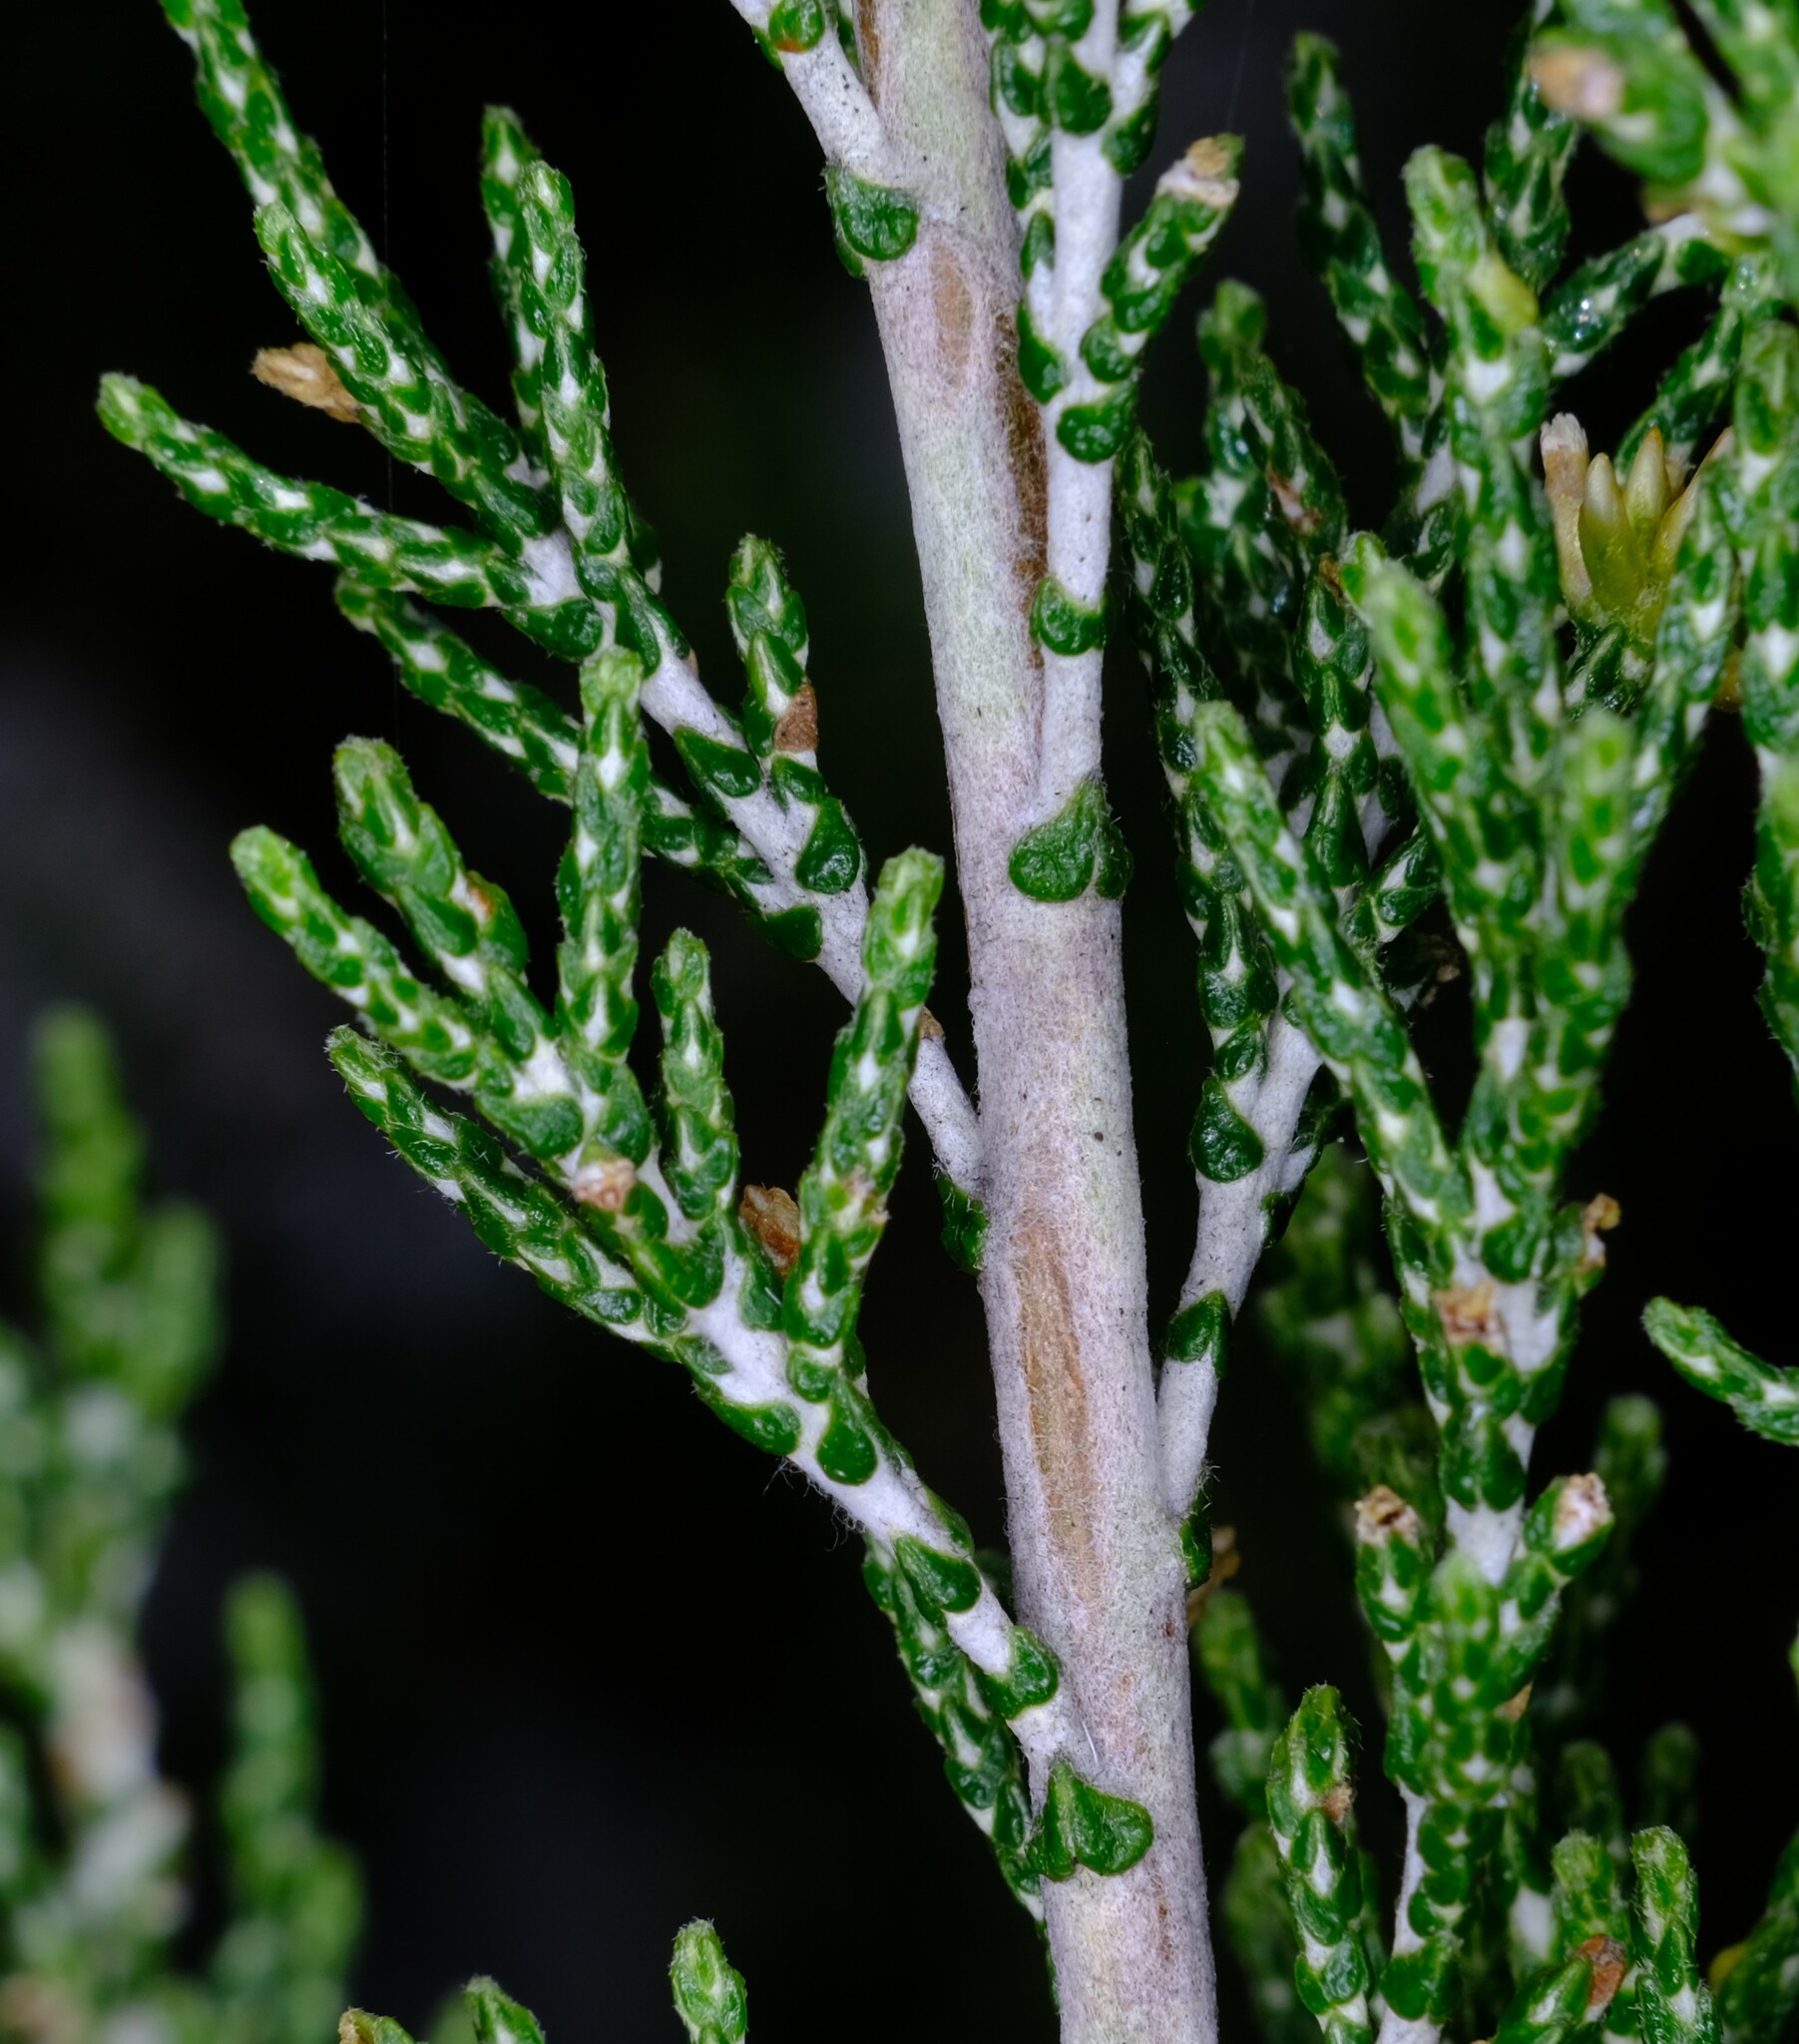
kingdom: Plantae
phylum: Tracheophyta
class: Magnoliopsida
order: Asterales
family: Asteraceae
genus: Ozothamnus
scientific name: Ozothamnus hookeri
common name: Kerosene-bush
